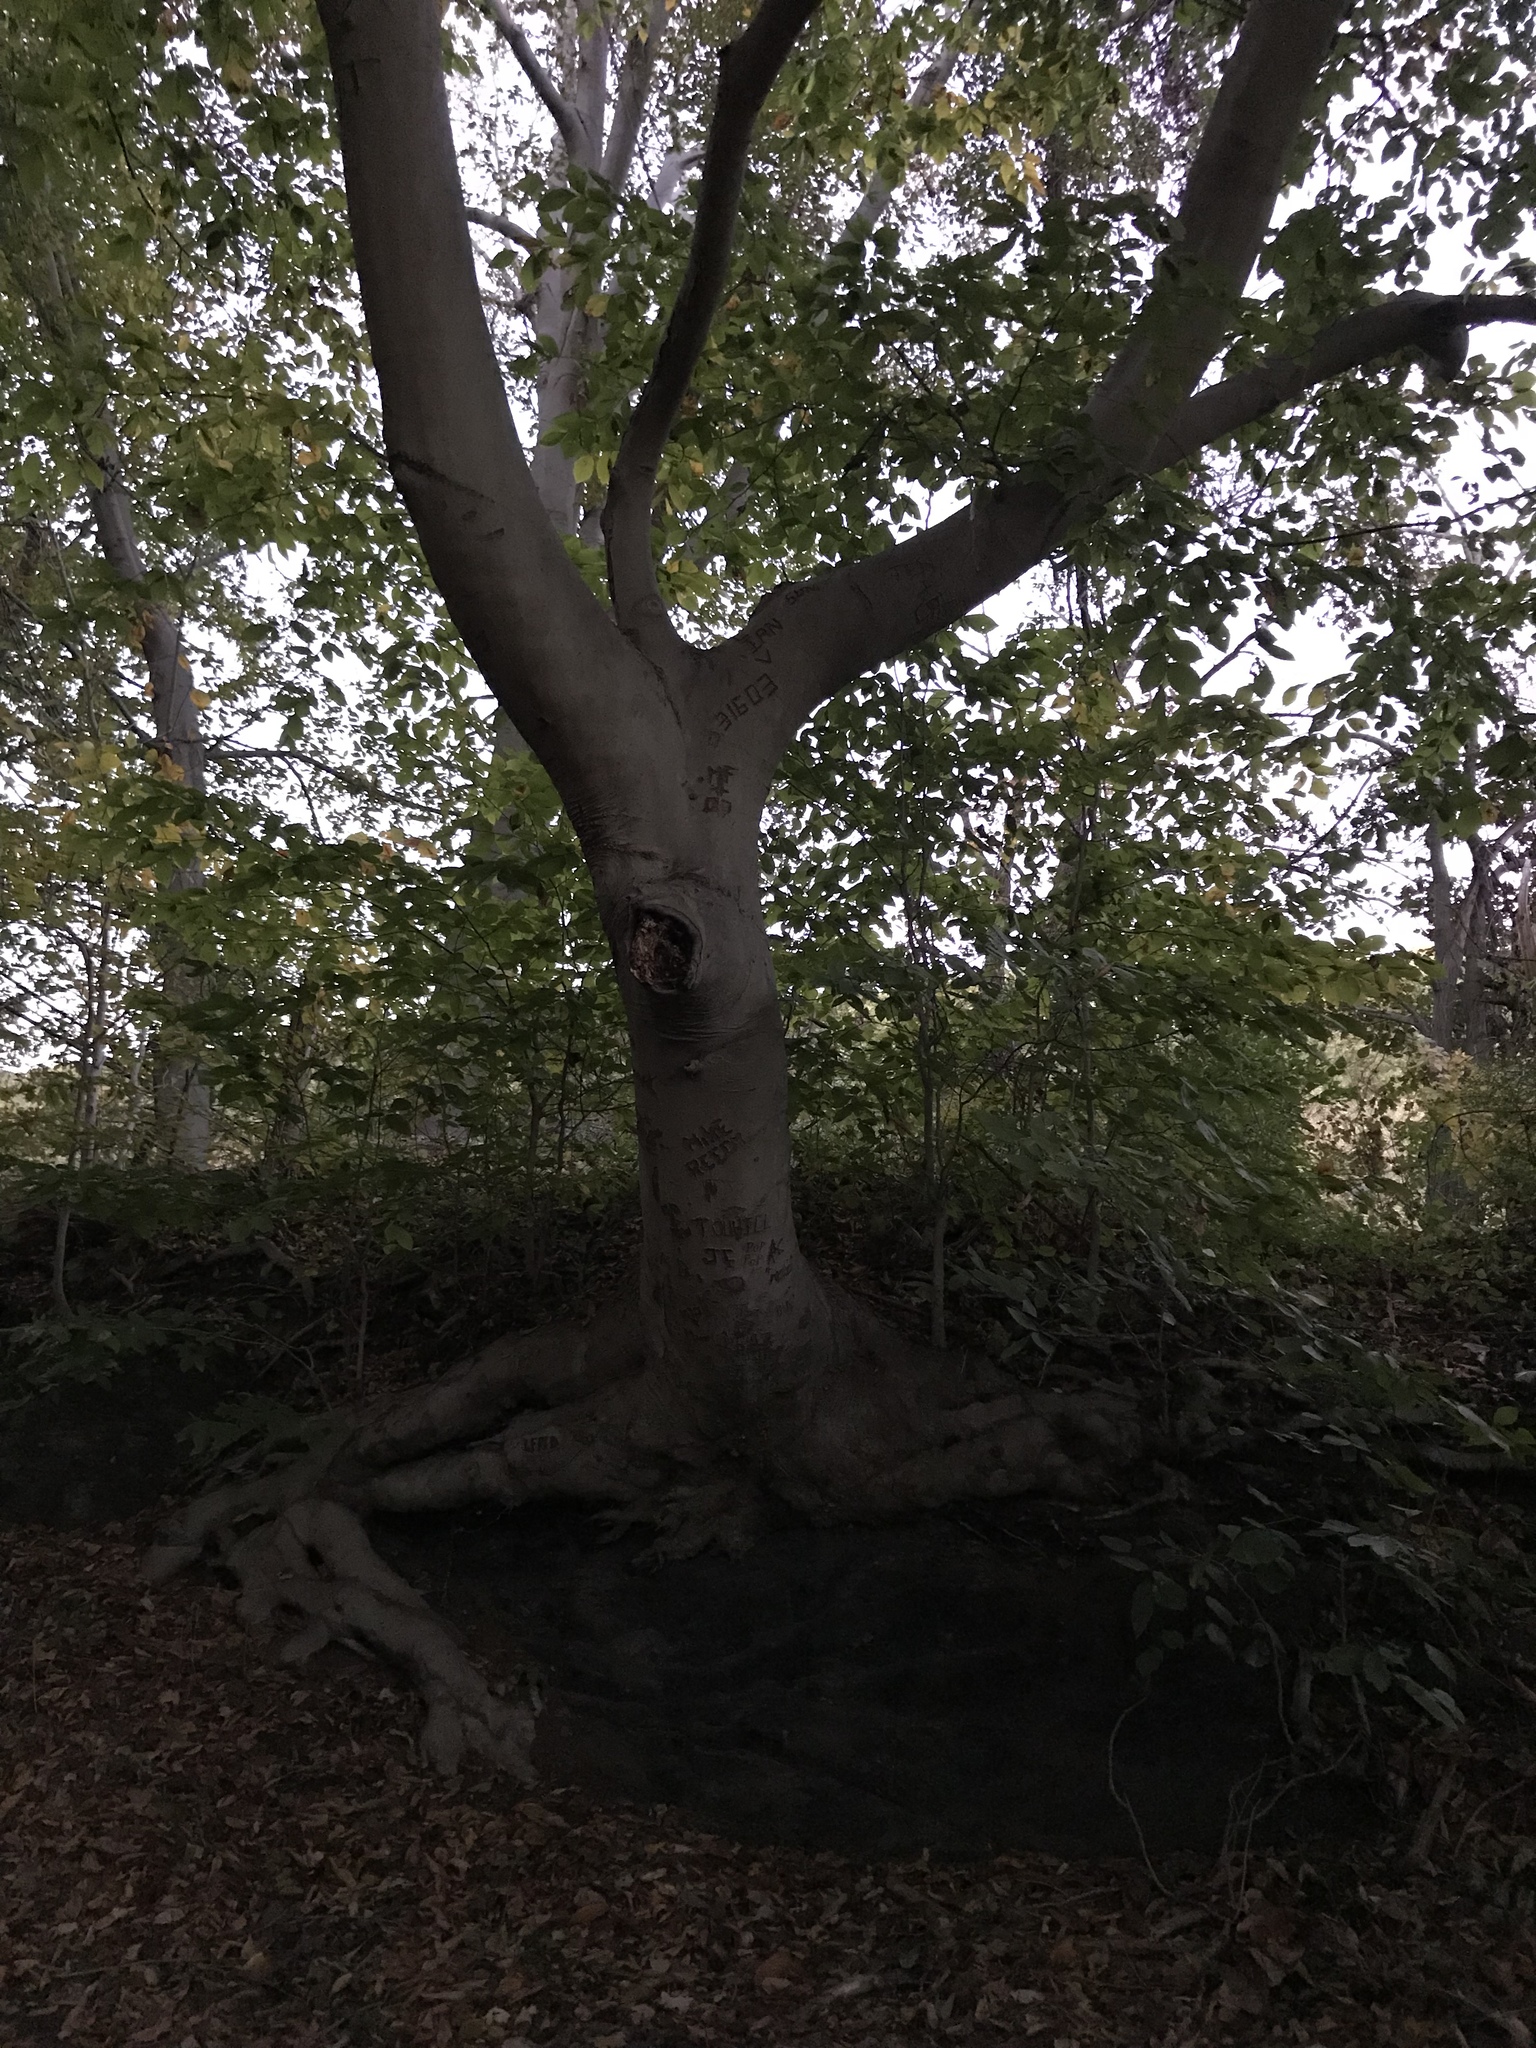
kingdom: Plantae
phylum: Tracheophyta
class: Magnoliopsida
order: Fagales
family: Fagaceae
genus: Fagus
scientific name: Fagus grandifolia
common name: American beech
